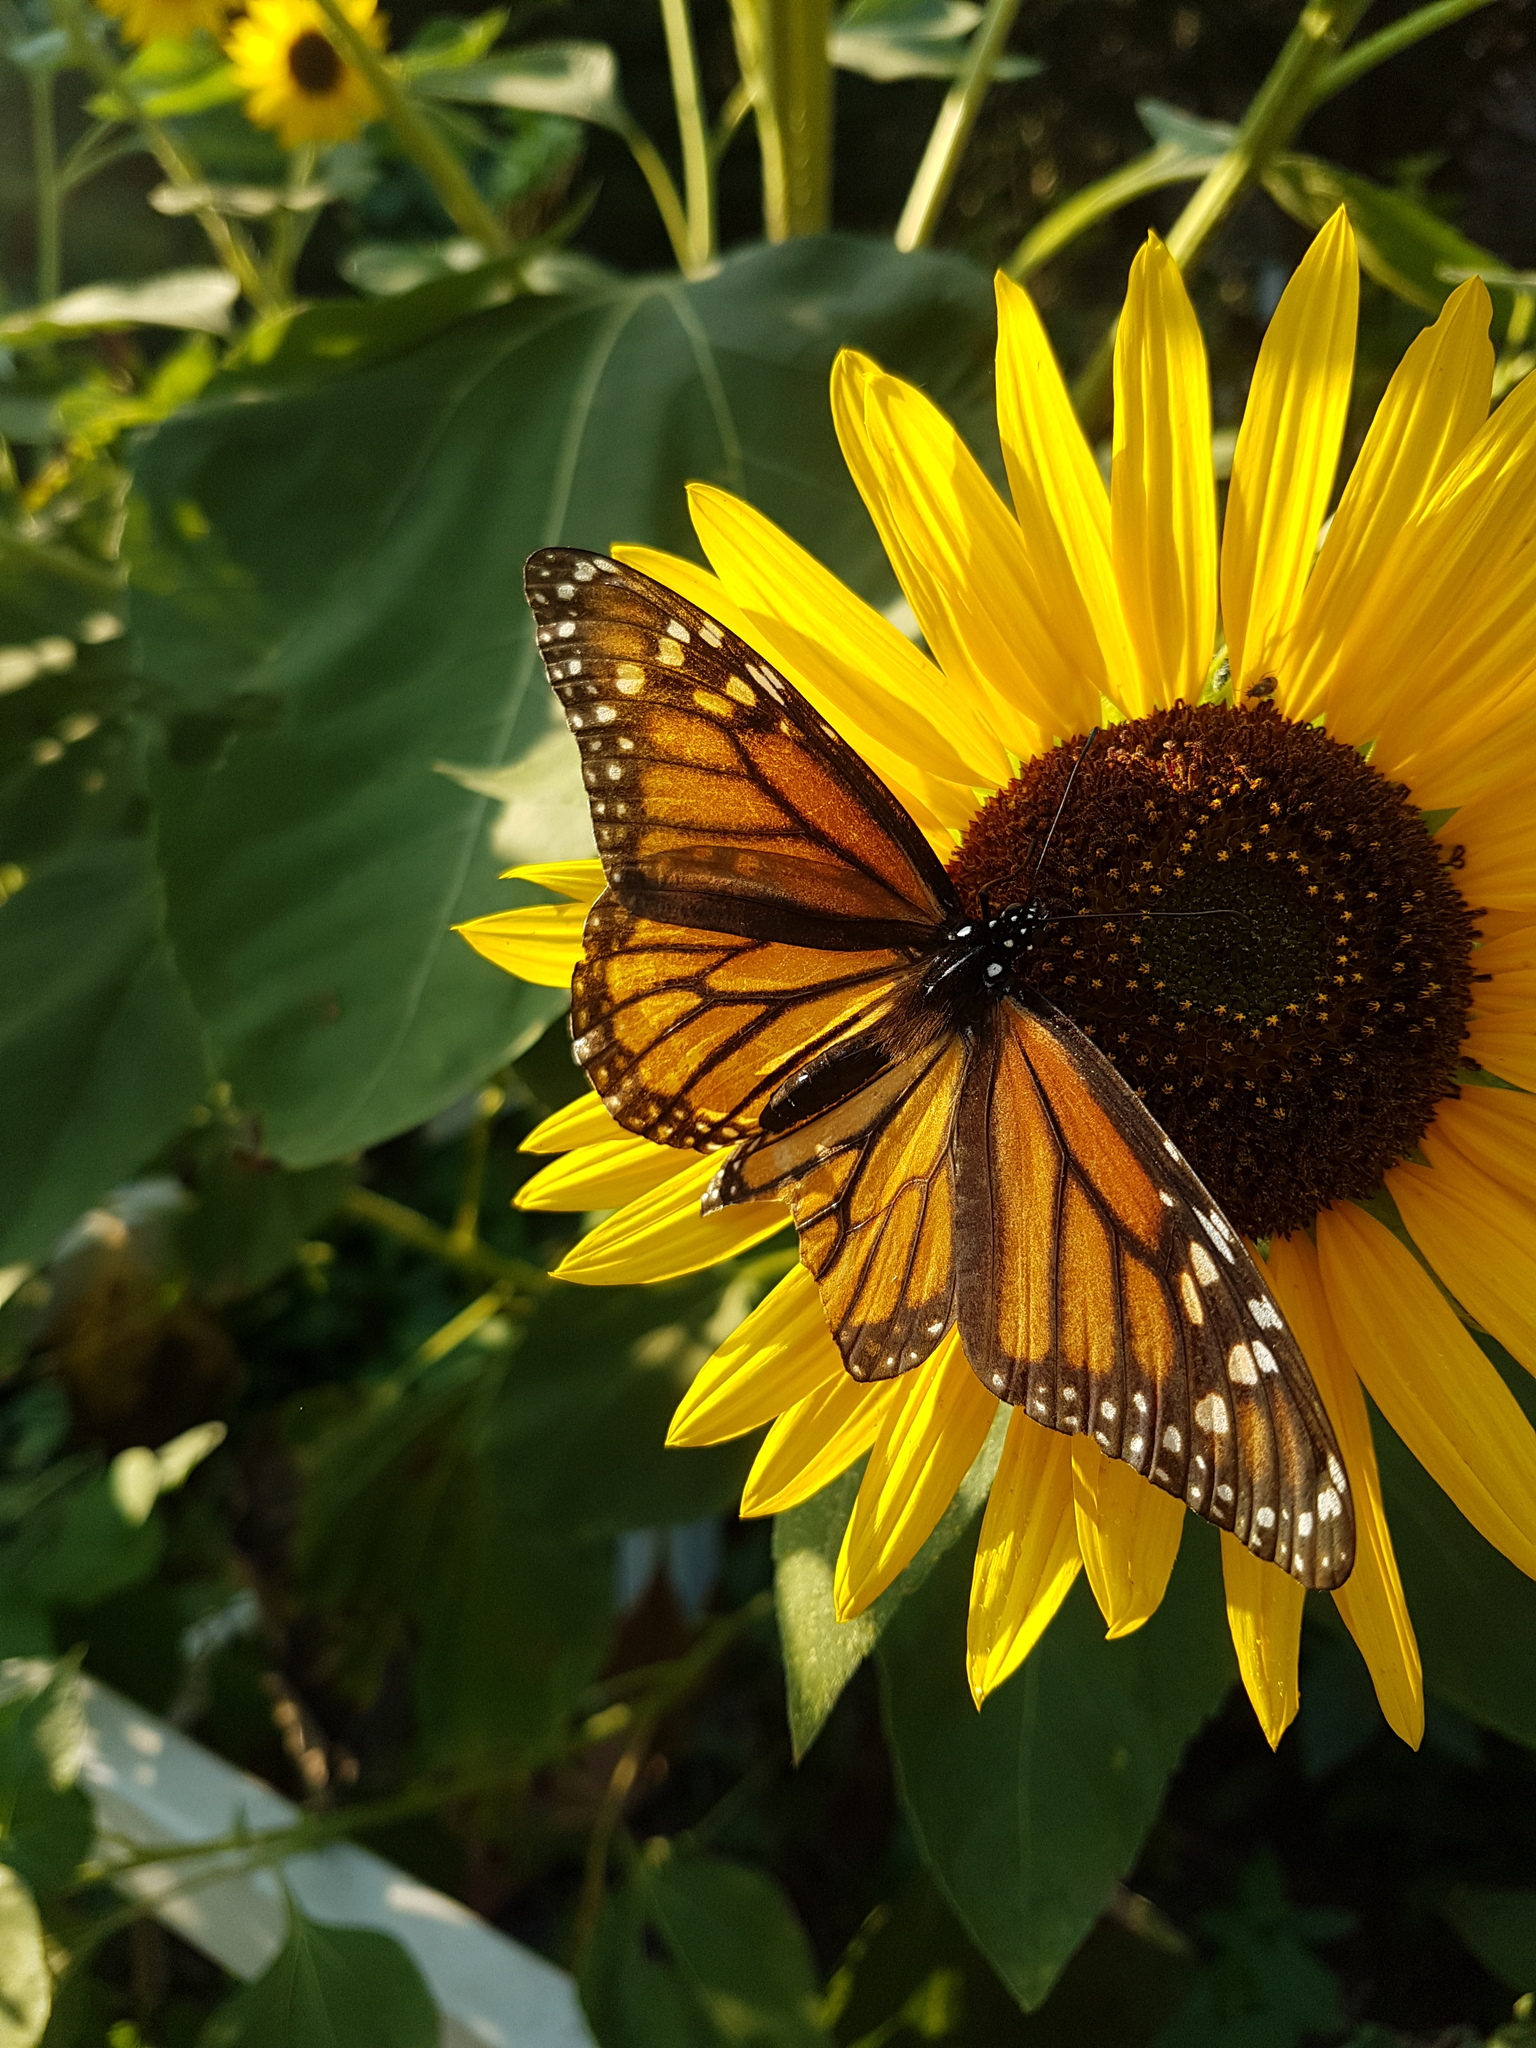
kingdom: Animalia
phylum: Arthropoda
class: Insecta
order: Lepidoptera
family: Nymphalidae
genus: Danaus
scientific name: Danaus plexippus
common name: Monarch
